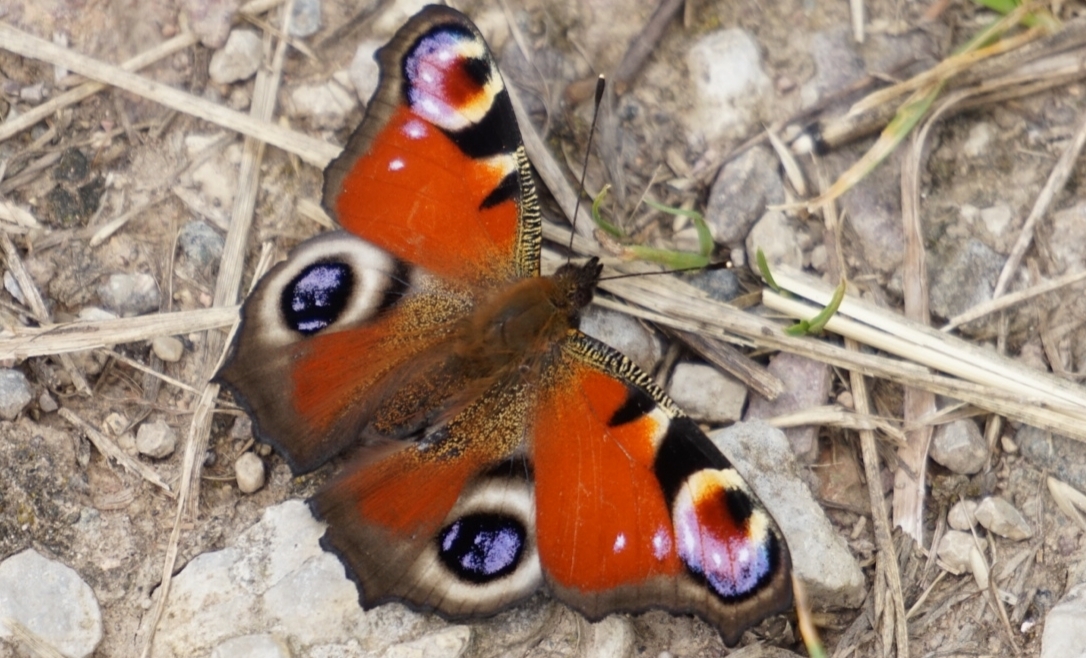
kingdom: Animalia
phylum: Arthropoda
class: Insecta
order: Lepidoptera
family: Nymphalidae
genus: Aglais
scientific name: Aglais io
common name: Peacock
